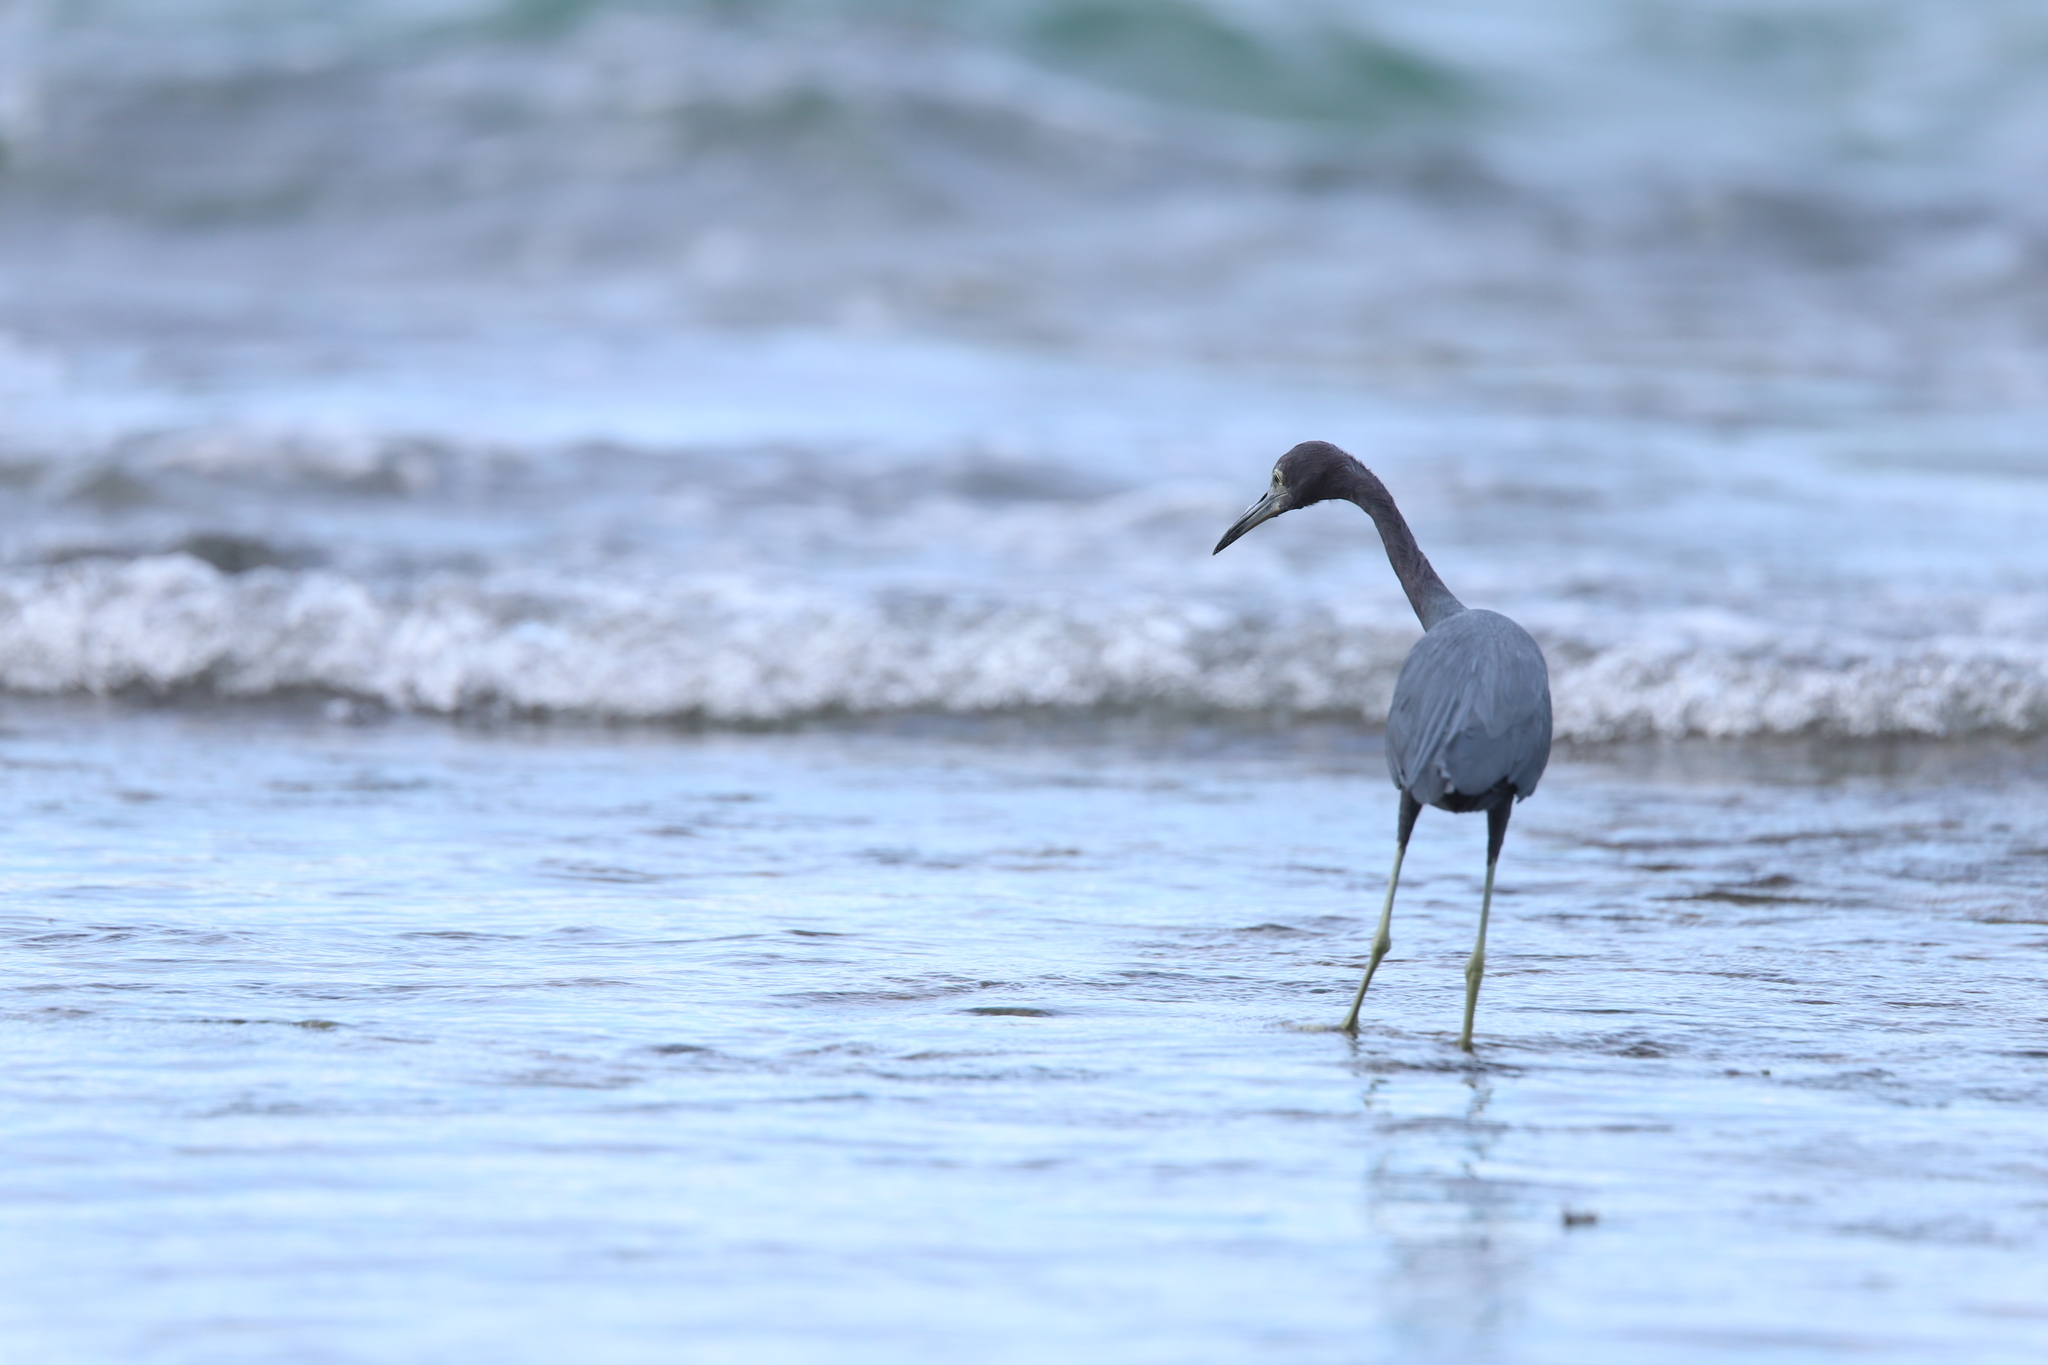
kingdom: Animalia
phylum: Chordata
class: Aves
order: Pelecaniformes
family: Ardeidae
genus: Egretta
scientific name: Egretta caerulea
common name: Little blue heron
